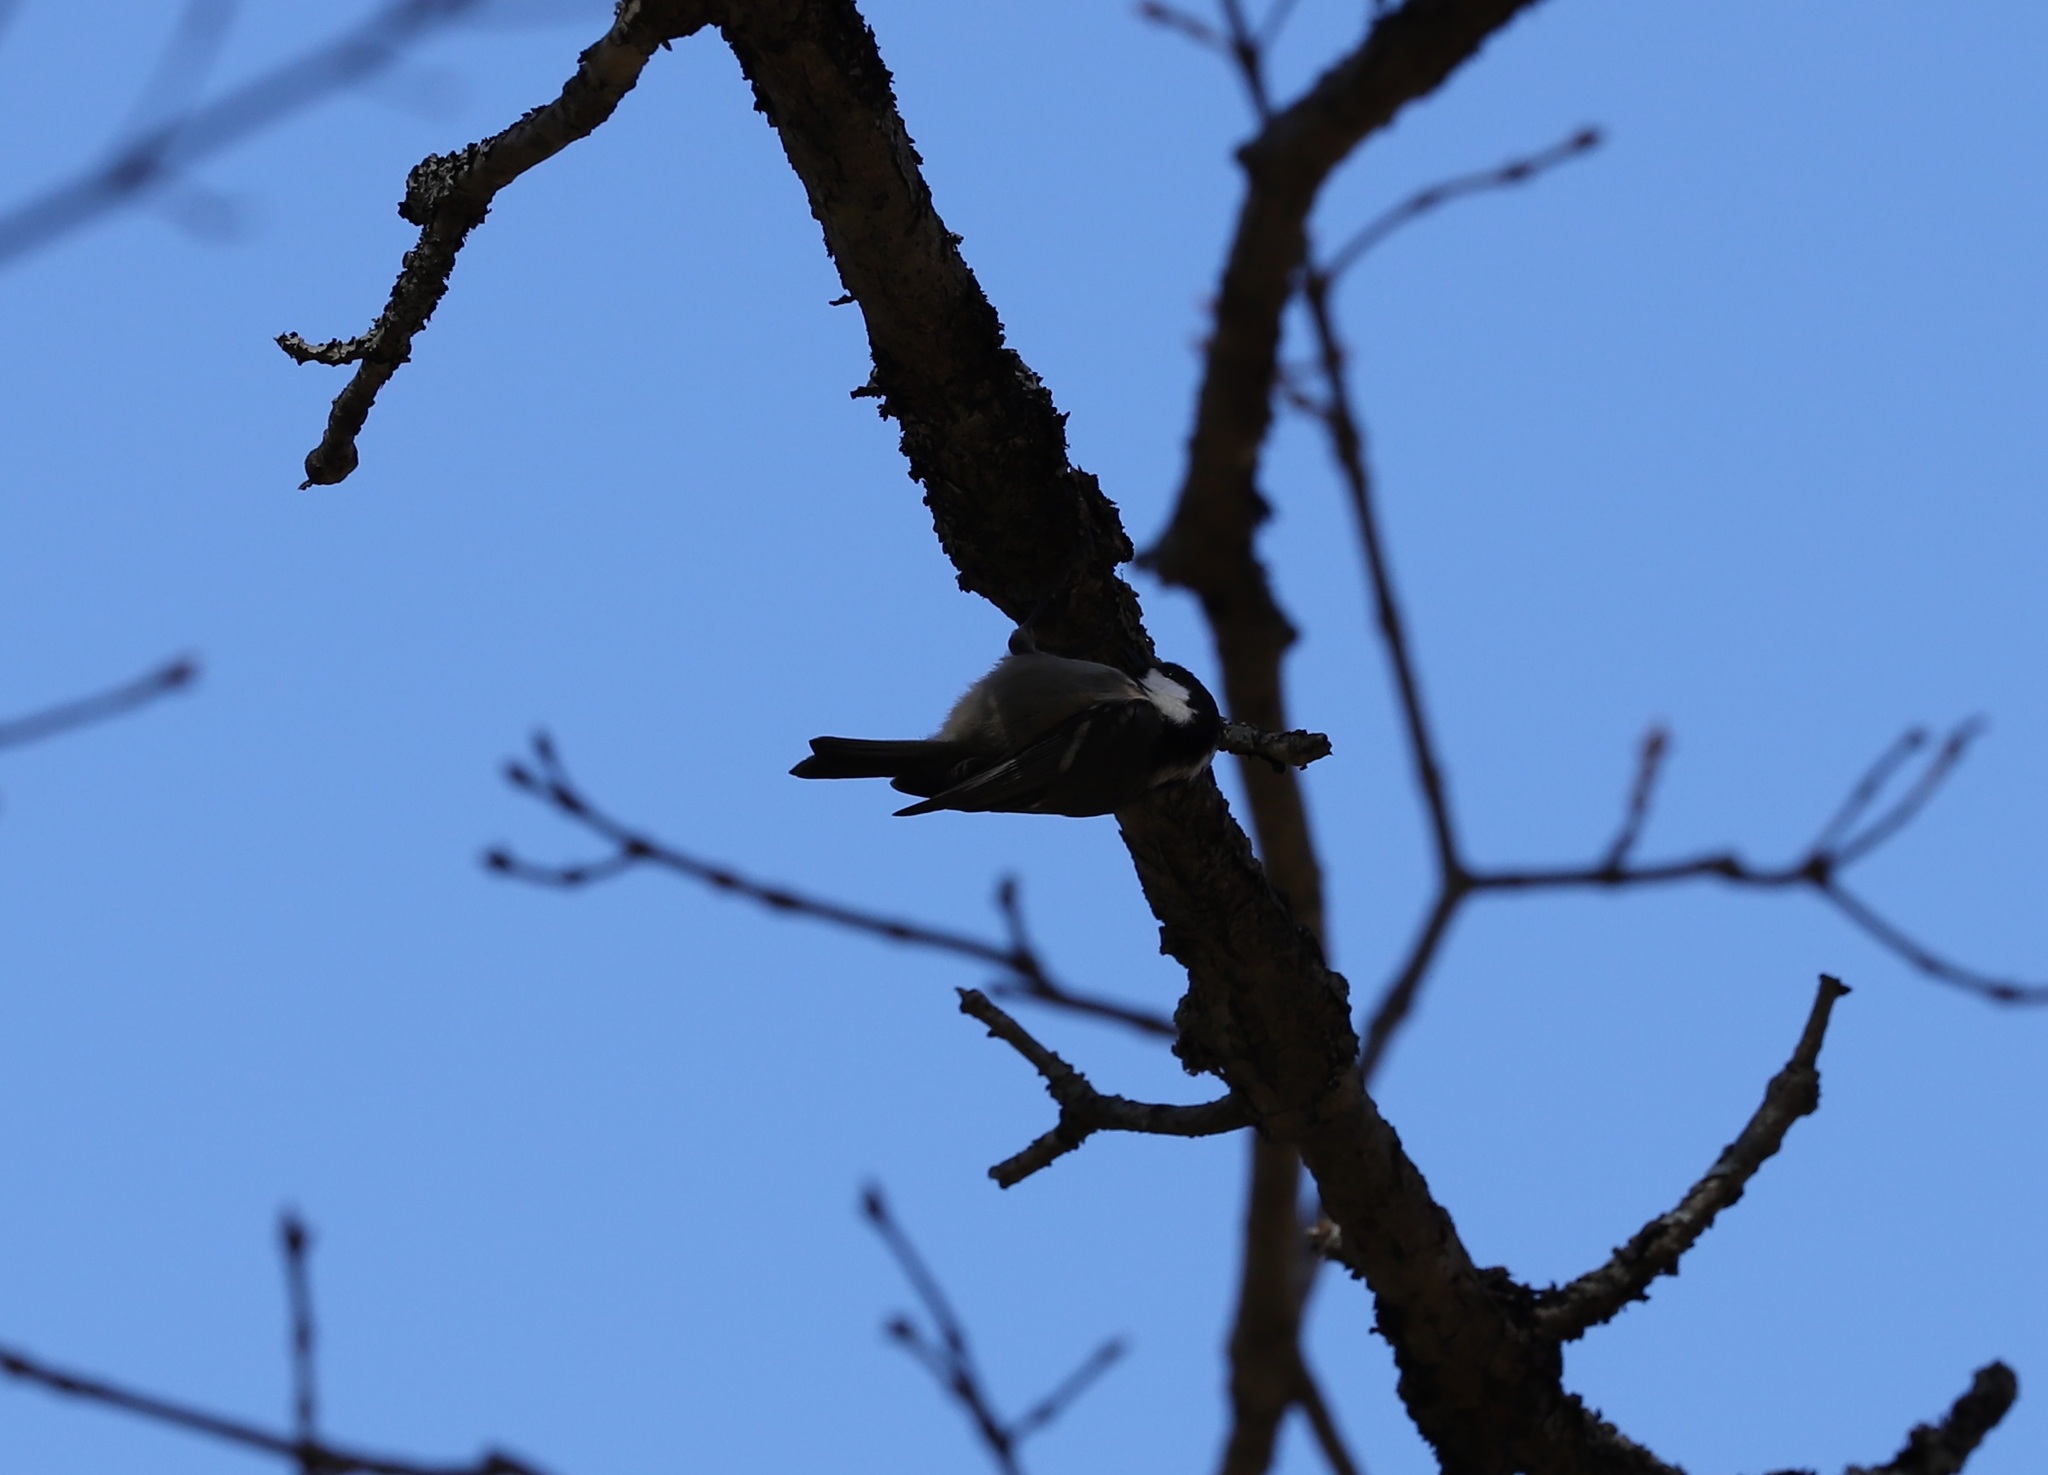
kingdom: Animalia
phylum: Chordata
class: Aves
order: Passeriformes
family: Paridae
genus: Periparus
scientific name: Periparus ater
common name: Coal tit
